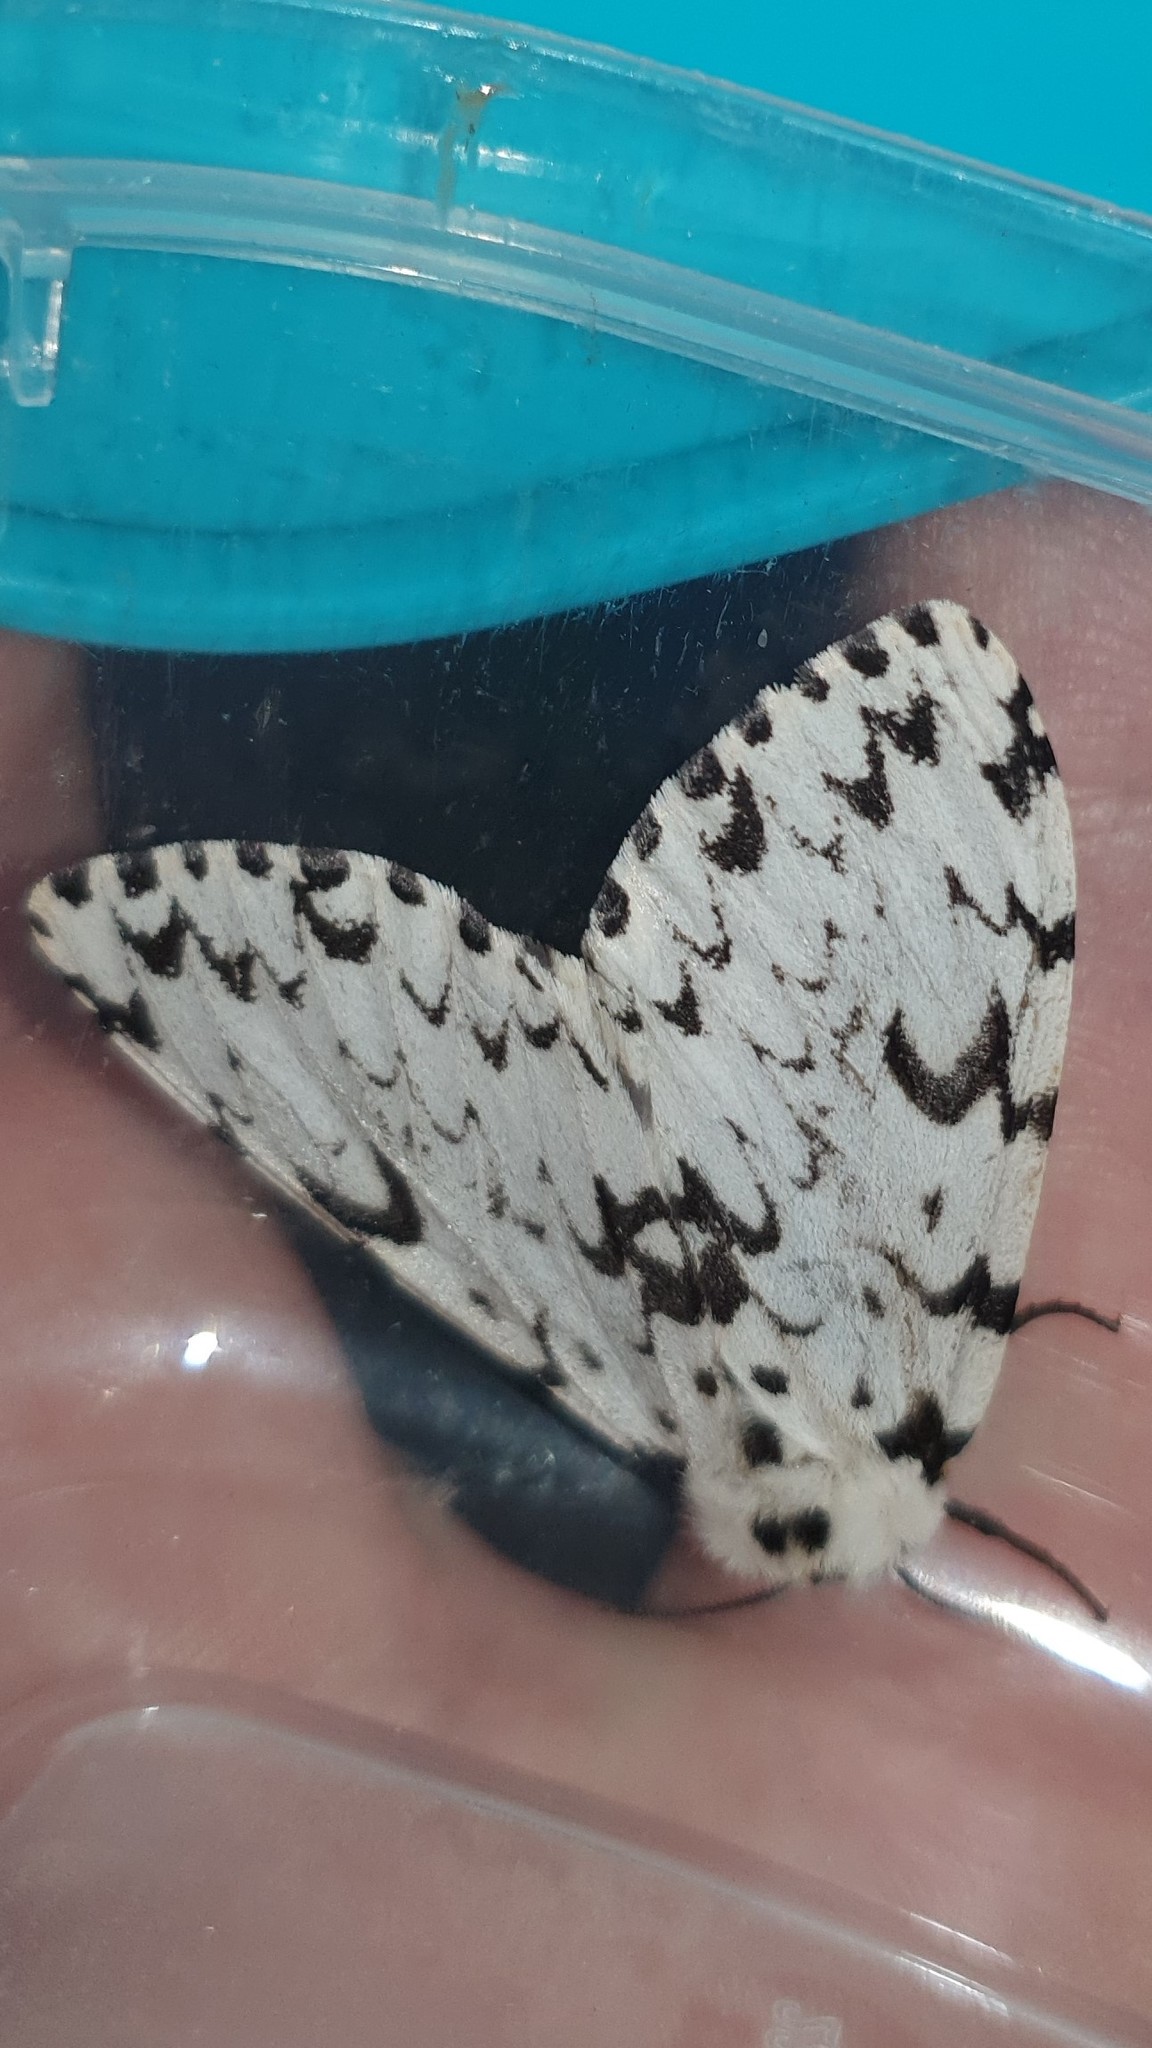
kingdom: Animalia
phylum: Arthropoda
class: Insecta
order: Lepidoptera
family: Erebidae
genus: Lymantria
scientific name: Lymantria monacha
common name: Black arches
